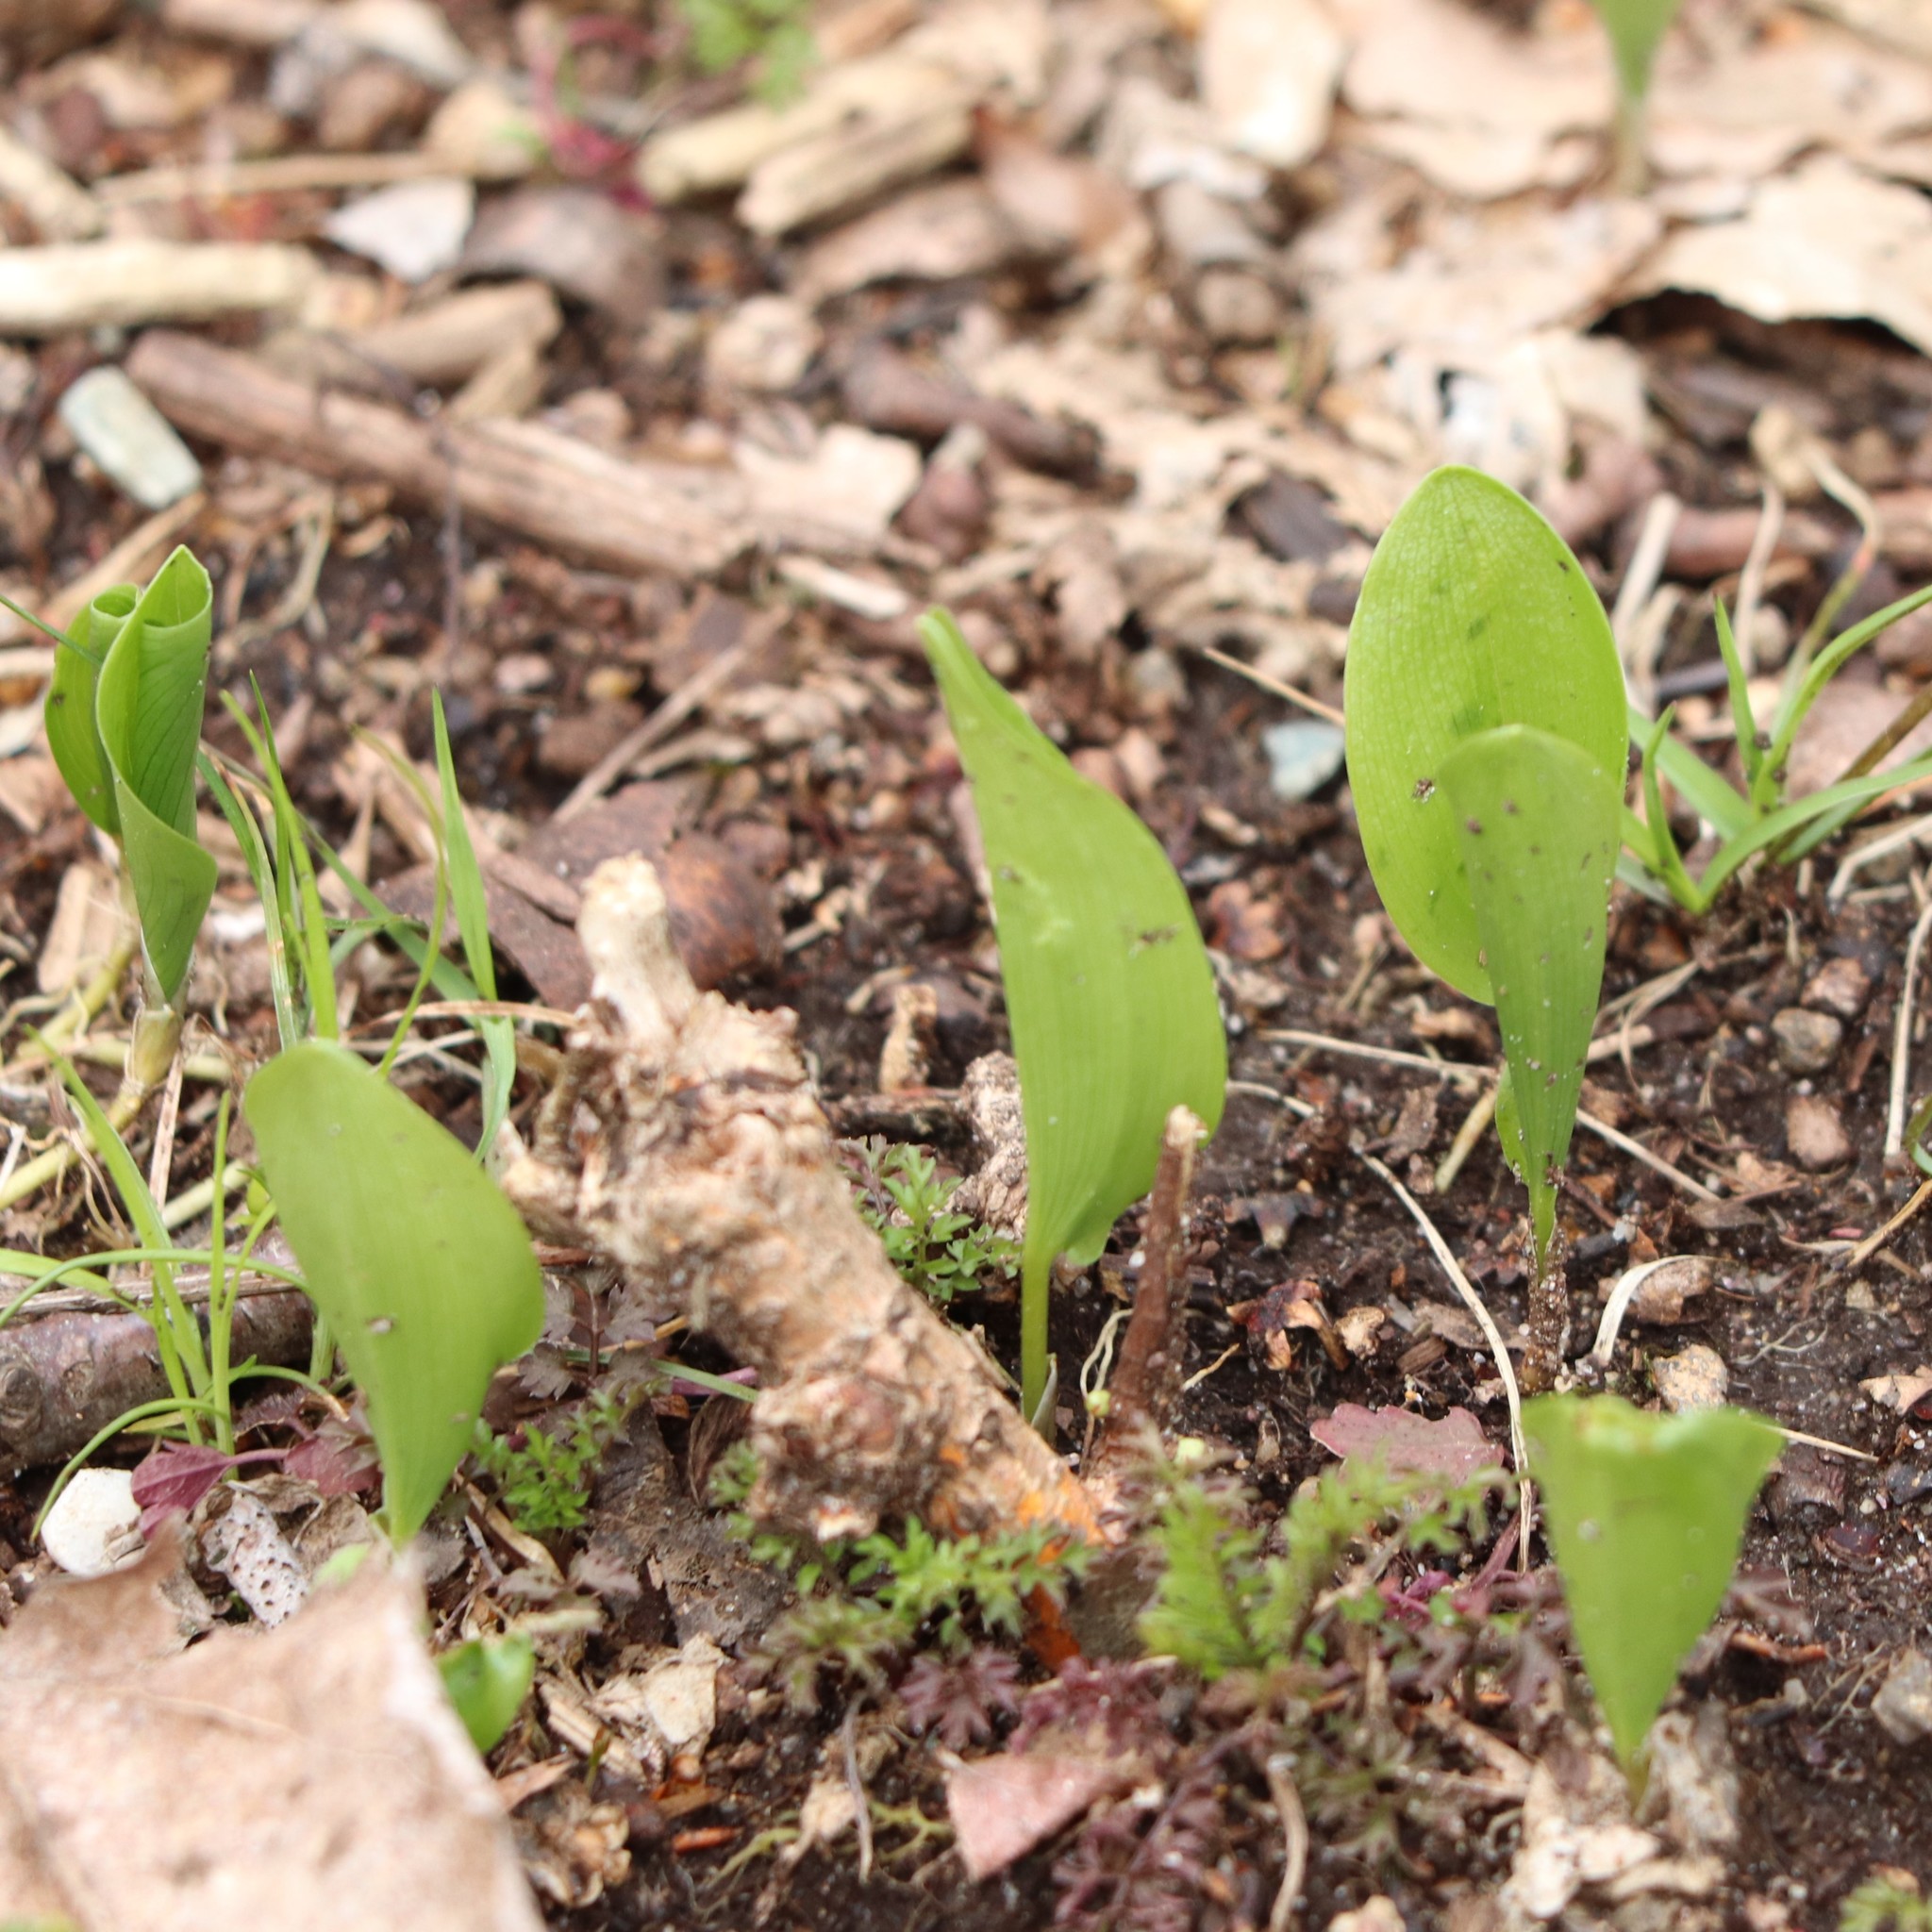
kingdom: Plantae
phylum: Tracheophyta
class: Liliopsida
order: Asparagales
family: Asparagaceae
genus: Maianthemum
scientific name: Maianthemum canadense
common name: False lily-of-the-valley
